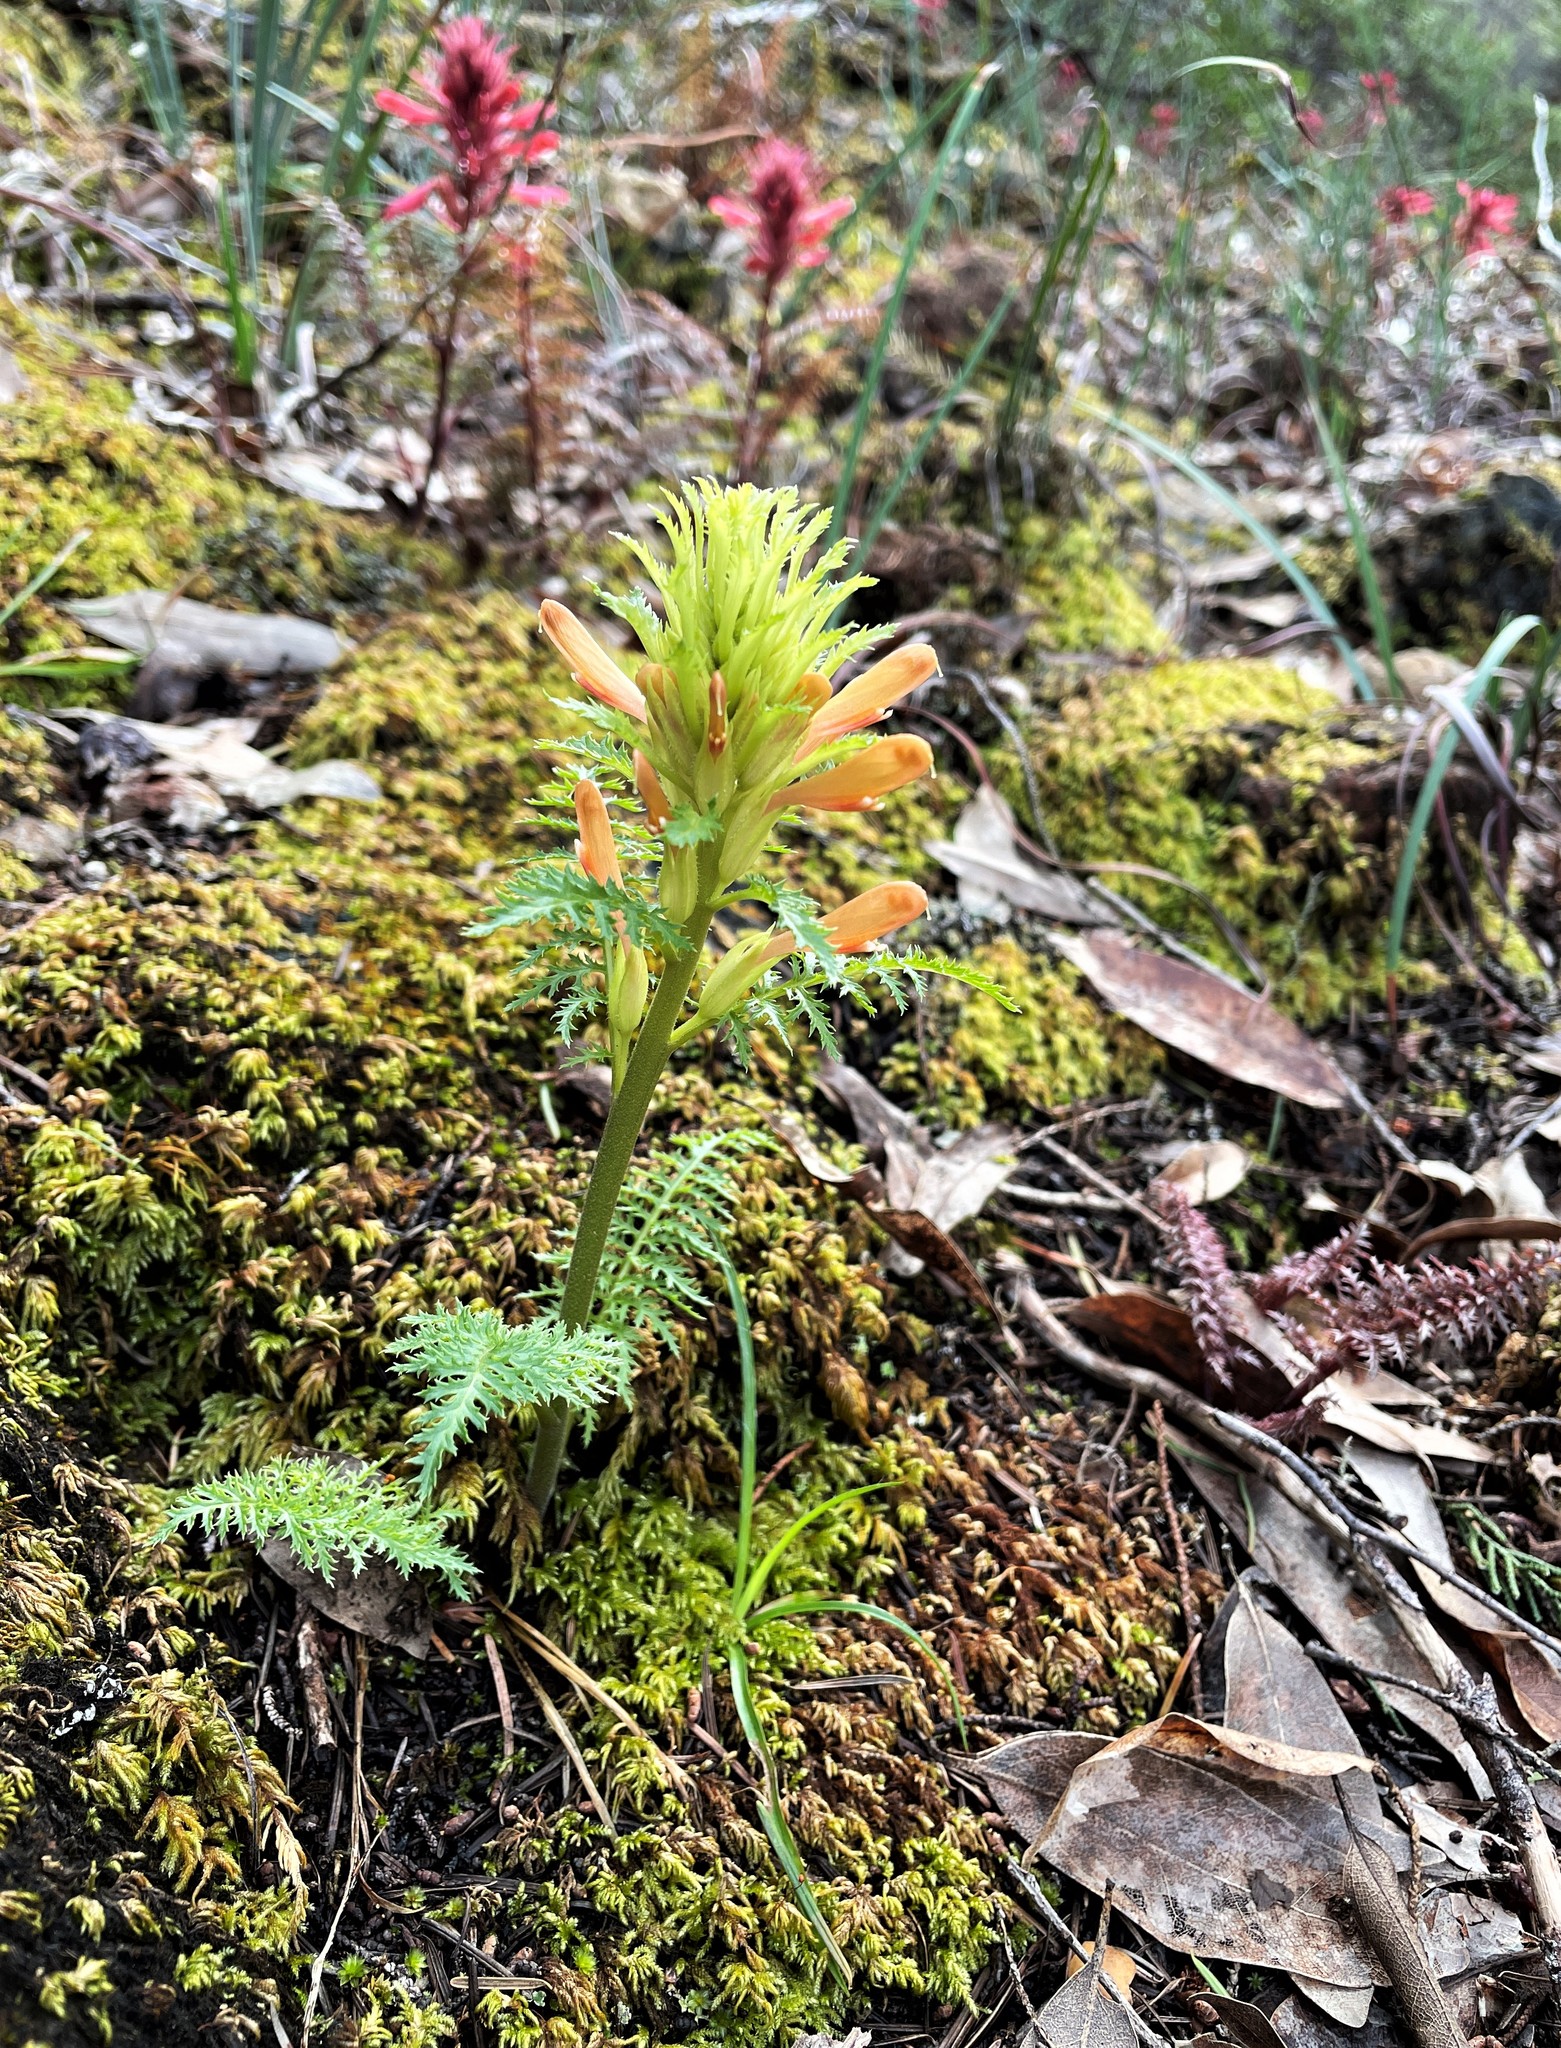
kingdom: Plantae
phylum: Tracheophyta
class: Magnoliopsida
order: Lamiales
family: Orobanchaceae
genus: Pedicularis
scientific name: Pedicularis densiflora
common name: Indian warrior
